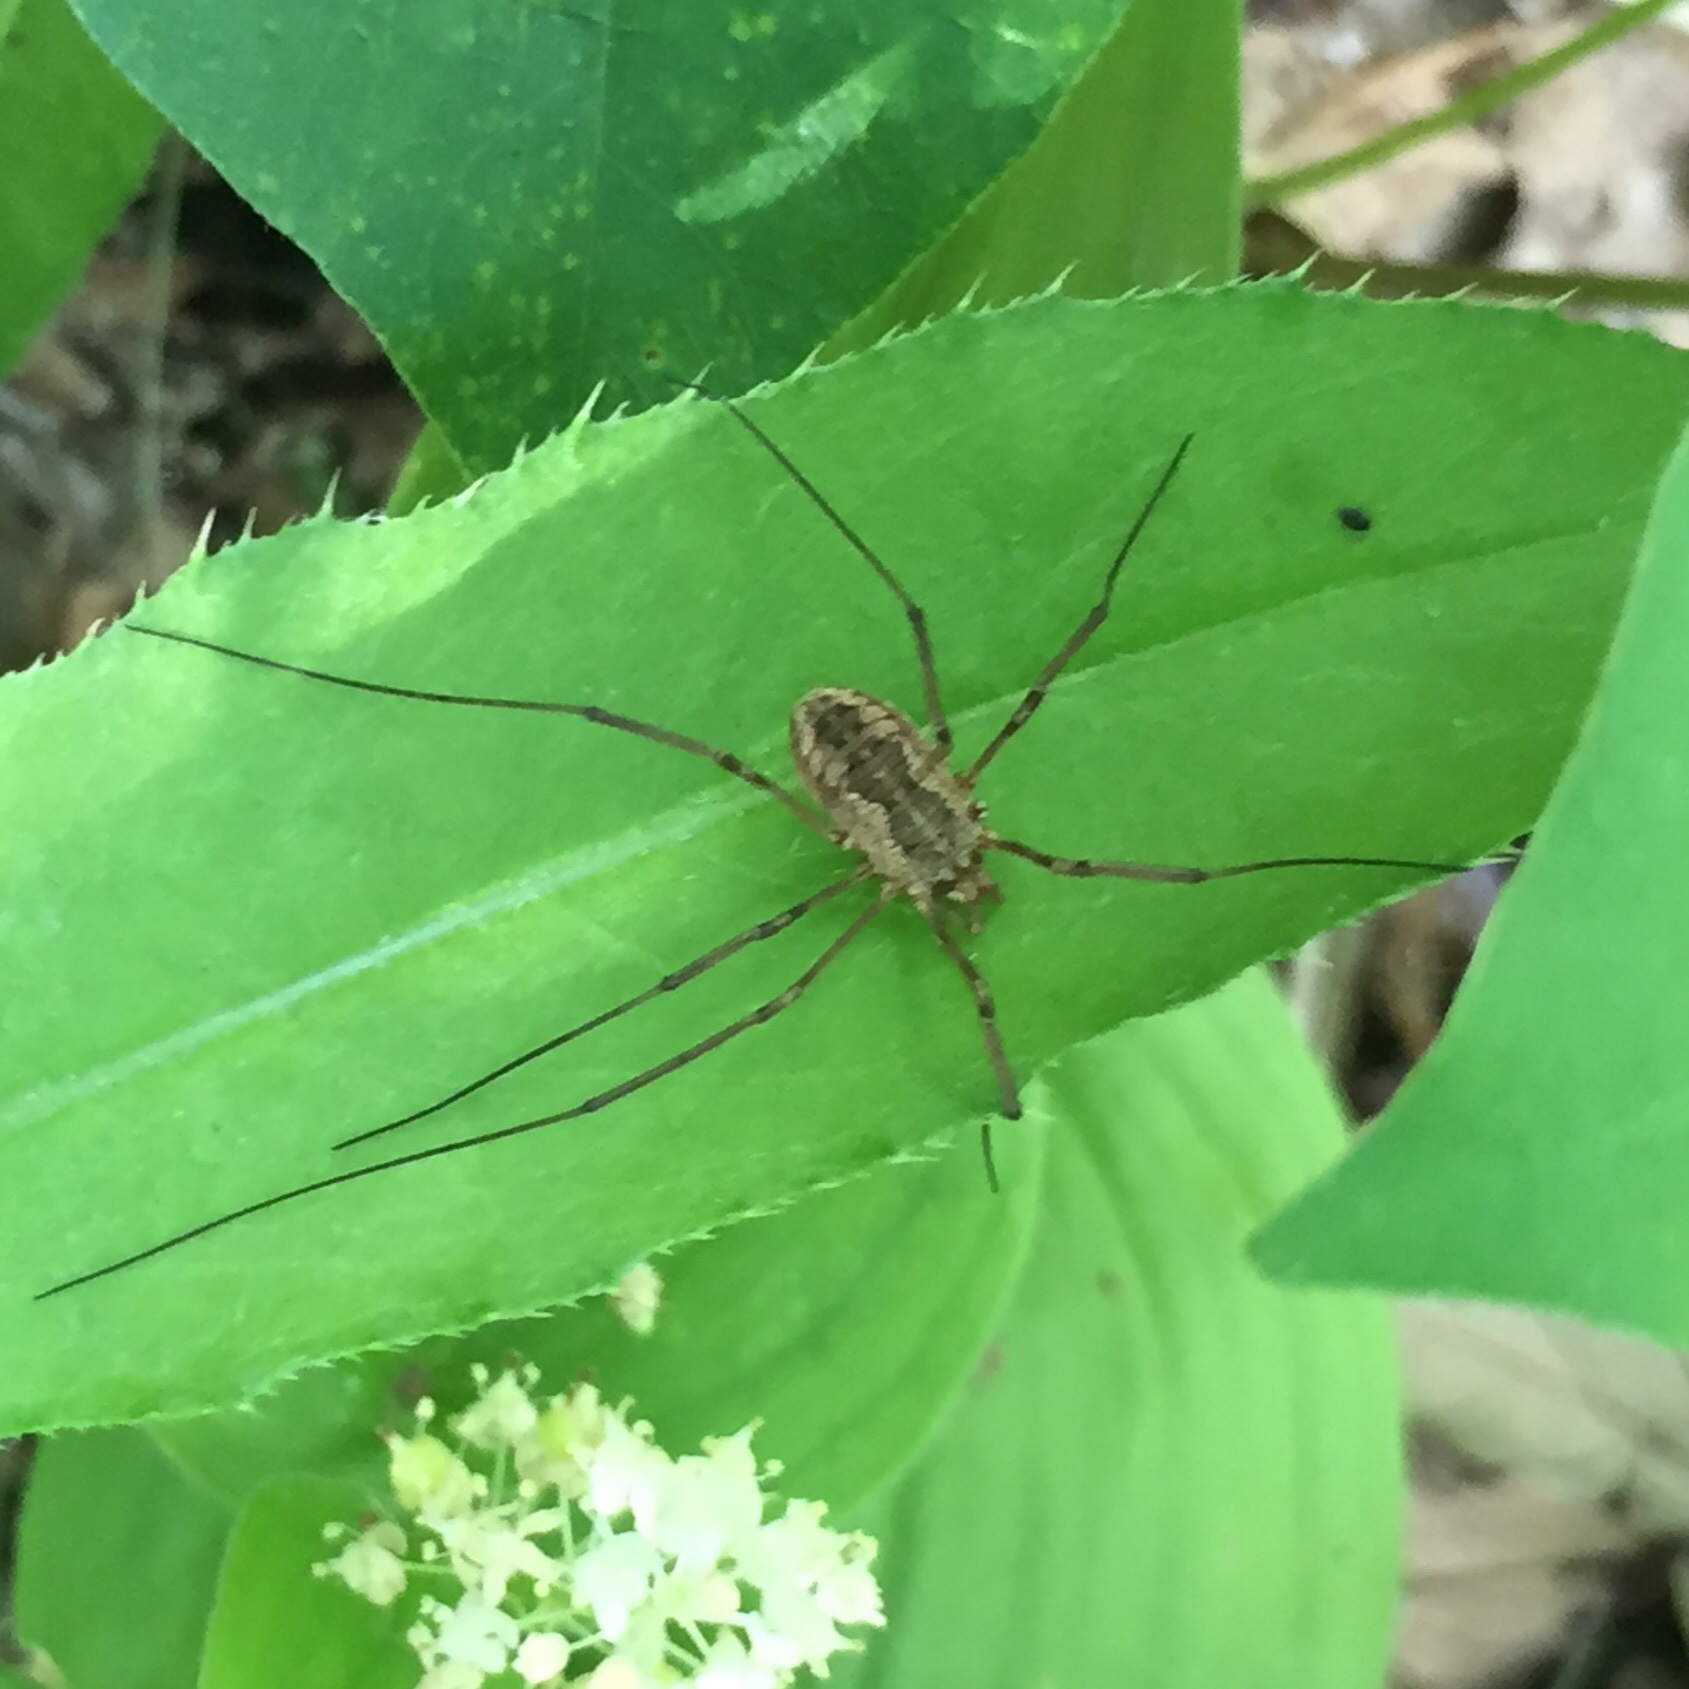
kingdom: Animalia
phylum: Arthropoda
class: Arachnida
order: Opiliones
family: Phalangiidae
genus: Phalangium
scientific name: Phalangium opilio
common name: Daddy longleg
